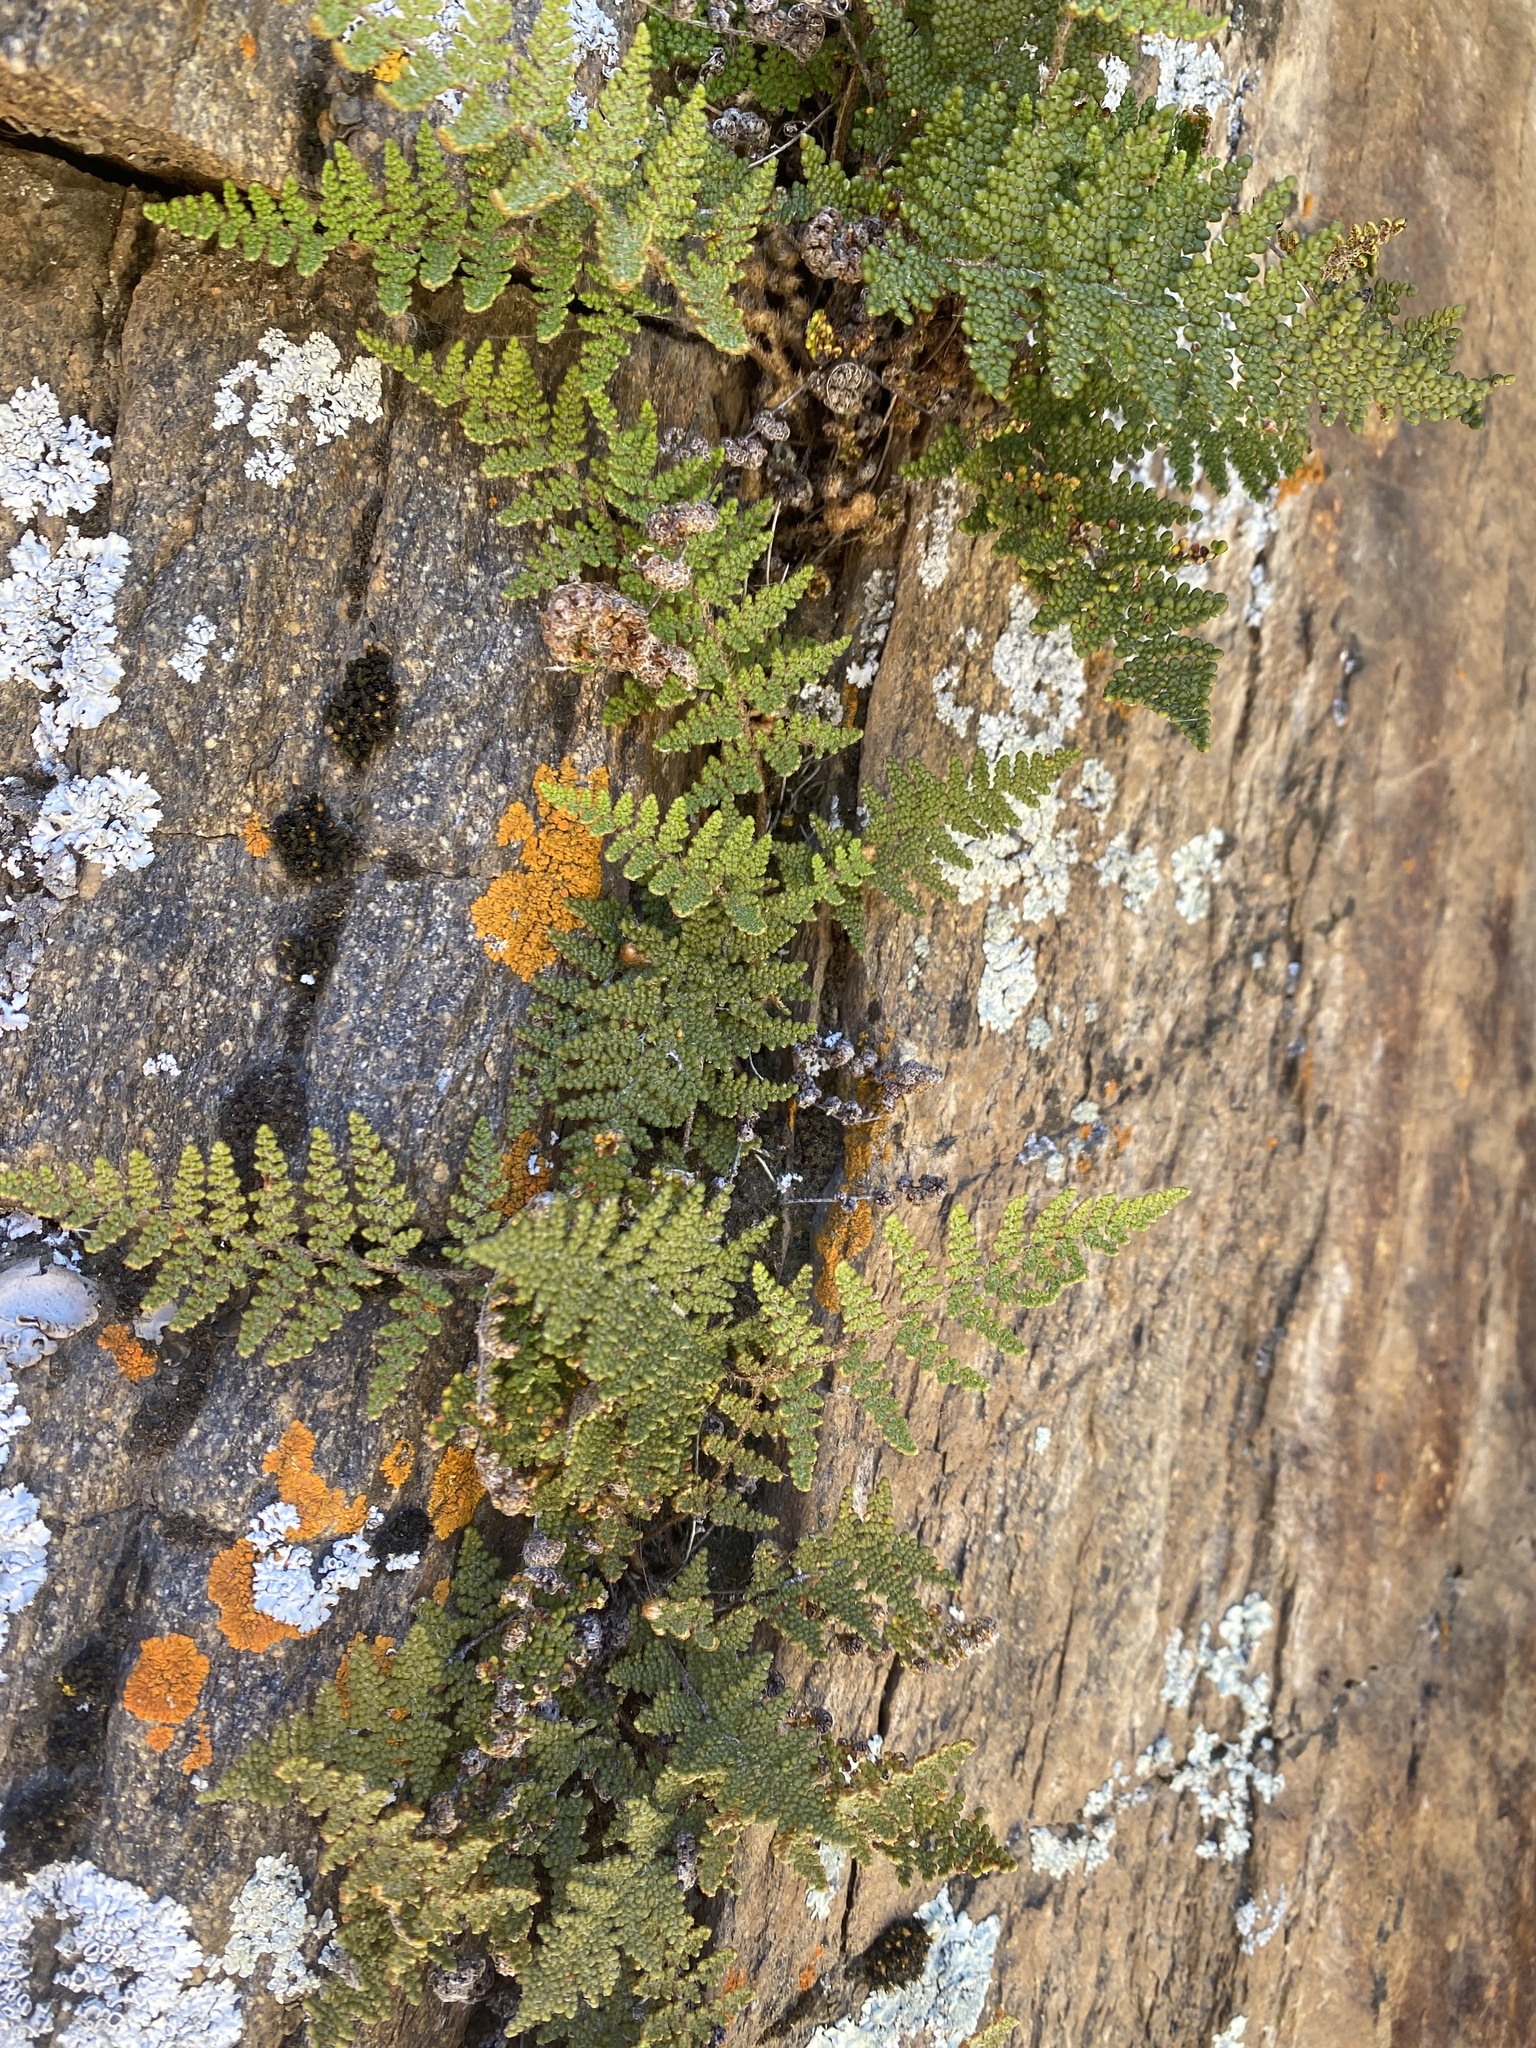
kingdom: Plantae
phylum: Tracheophyta
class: Polypodiopsida
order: Polypodiales
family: Pteridaceae
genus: Myriopteris
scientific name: Myriopteris covillei
